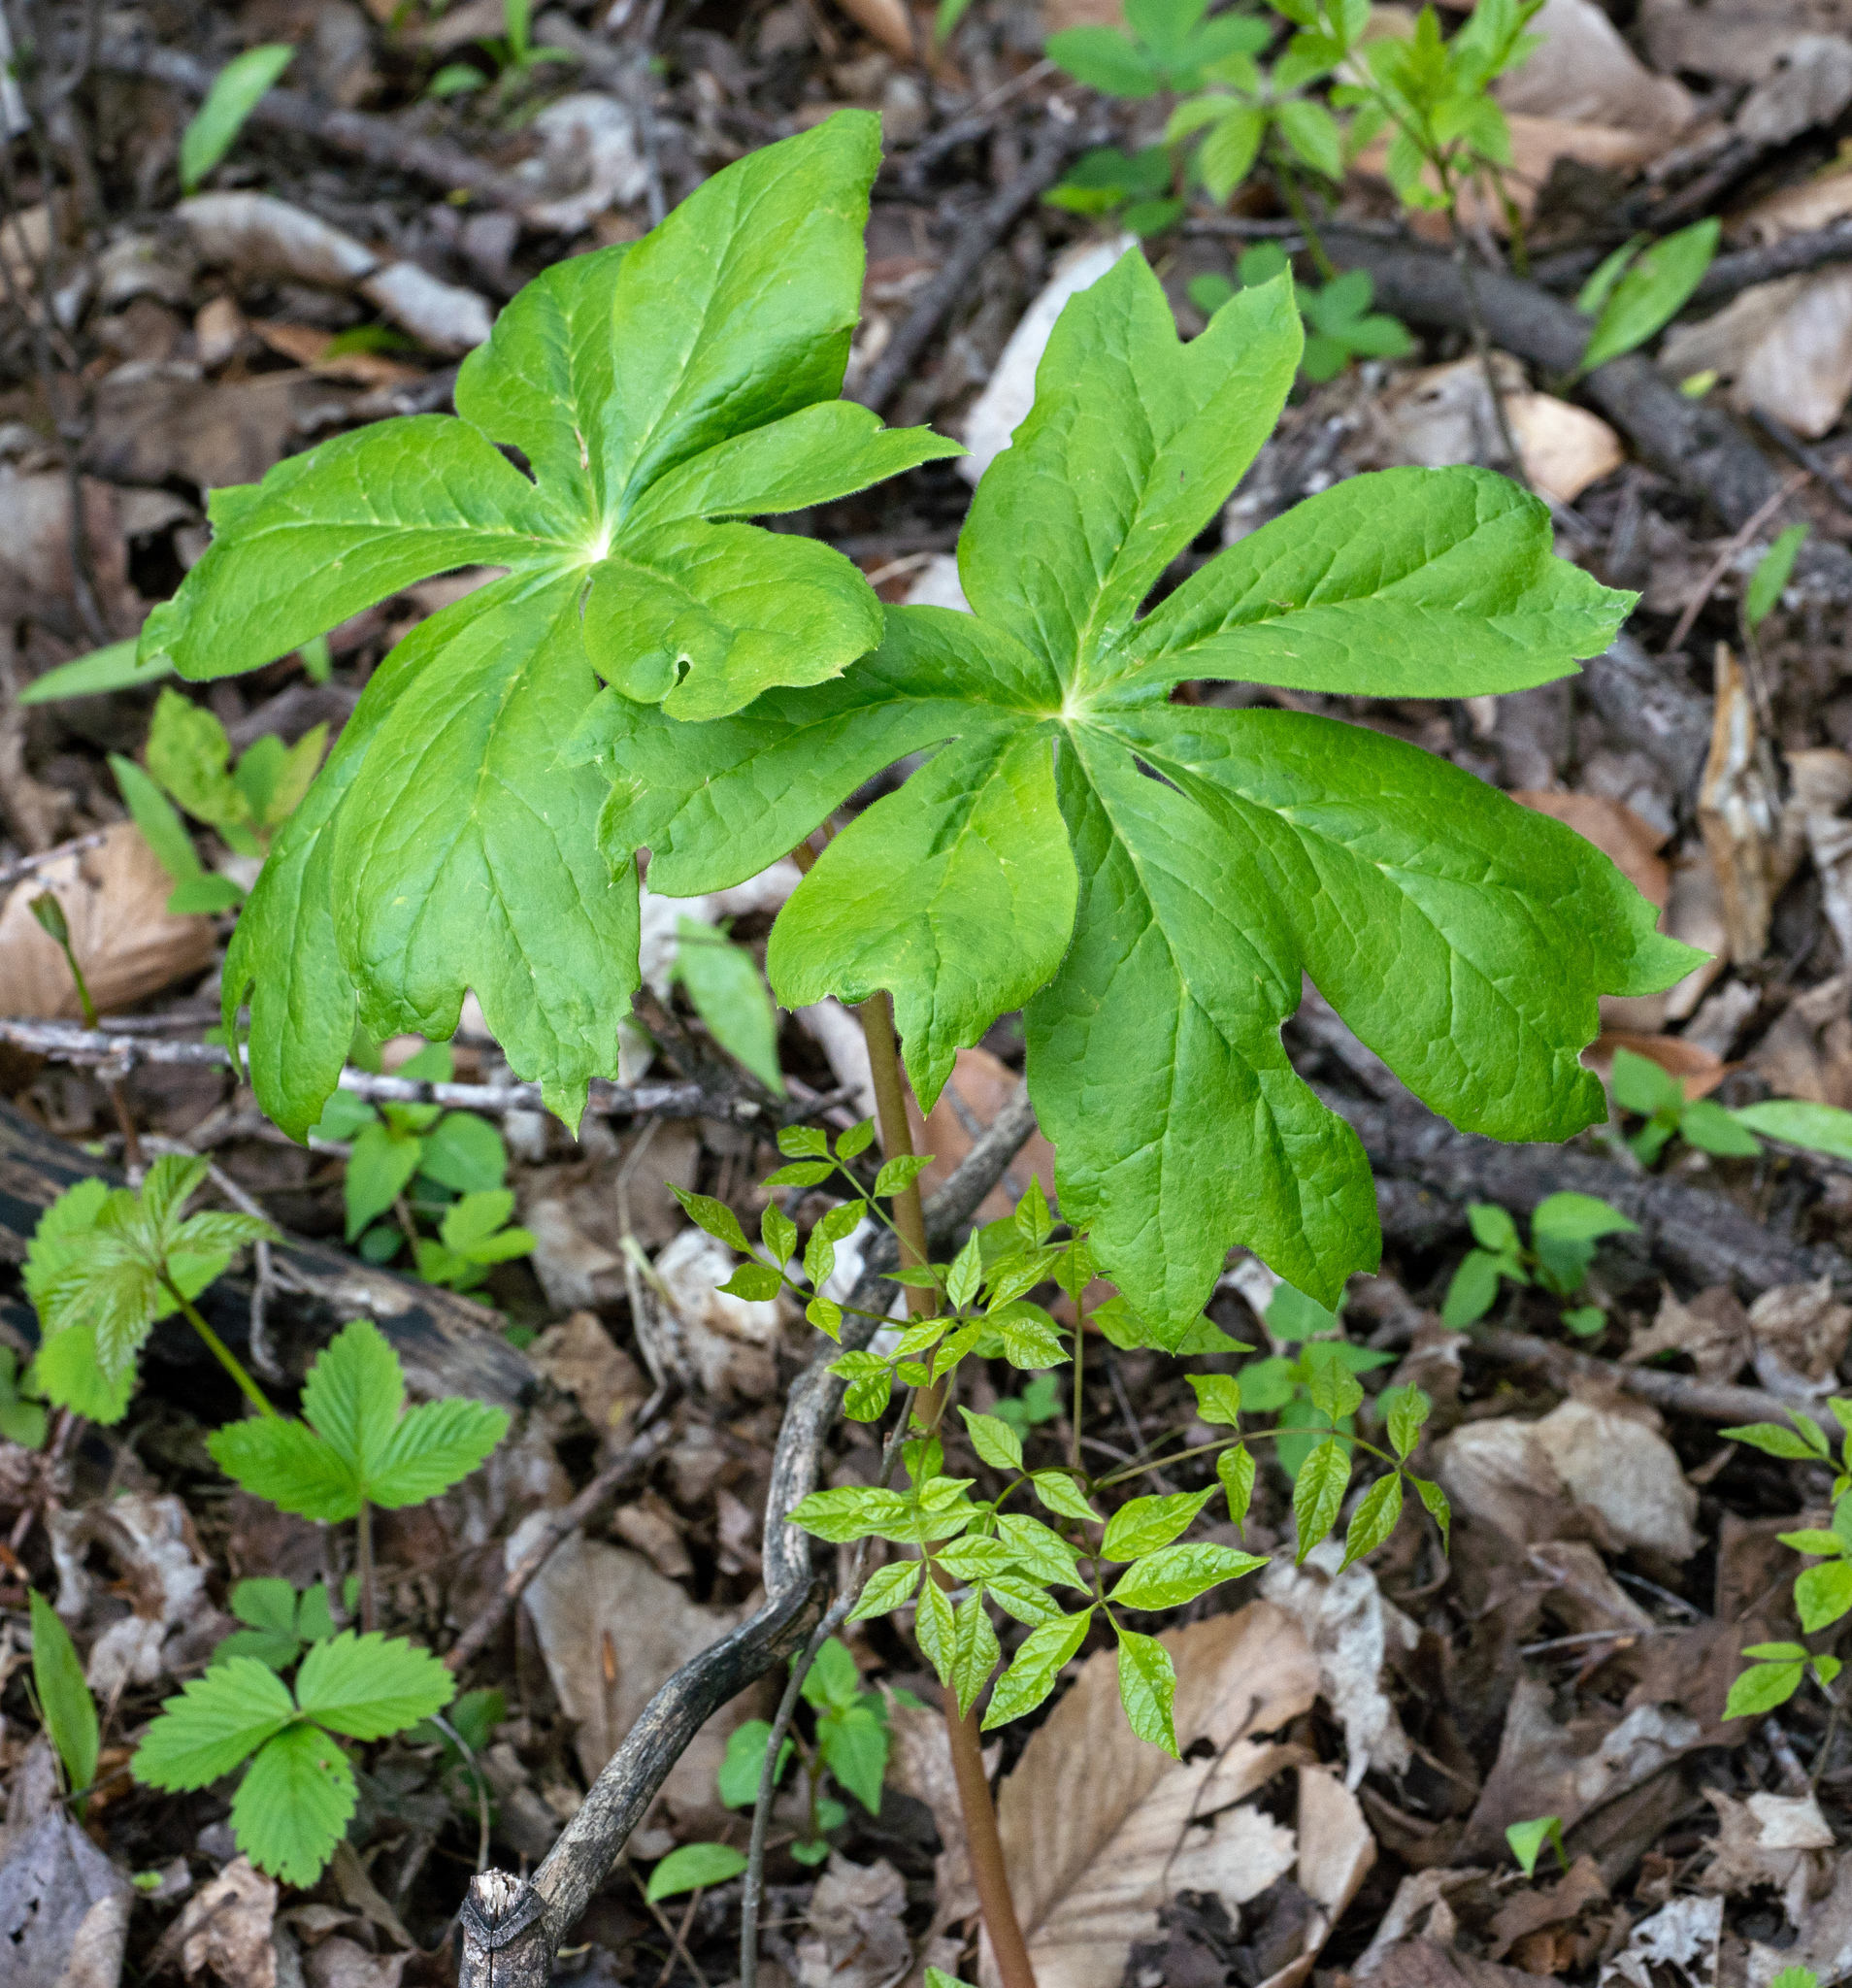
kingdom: Plantae
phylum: Tracheophyta
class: Magnoliopsida
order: Ranunculales
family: Berberidaceae
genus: Podophyllum
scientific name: Podophyllum peltatum
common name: Wild mandrake
